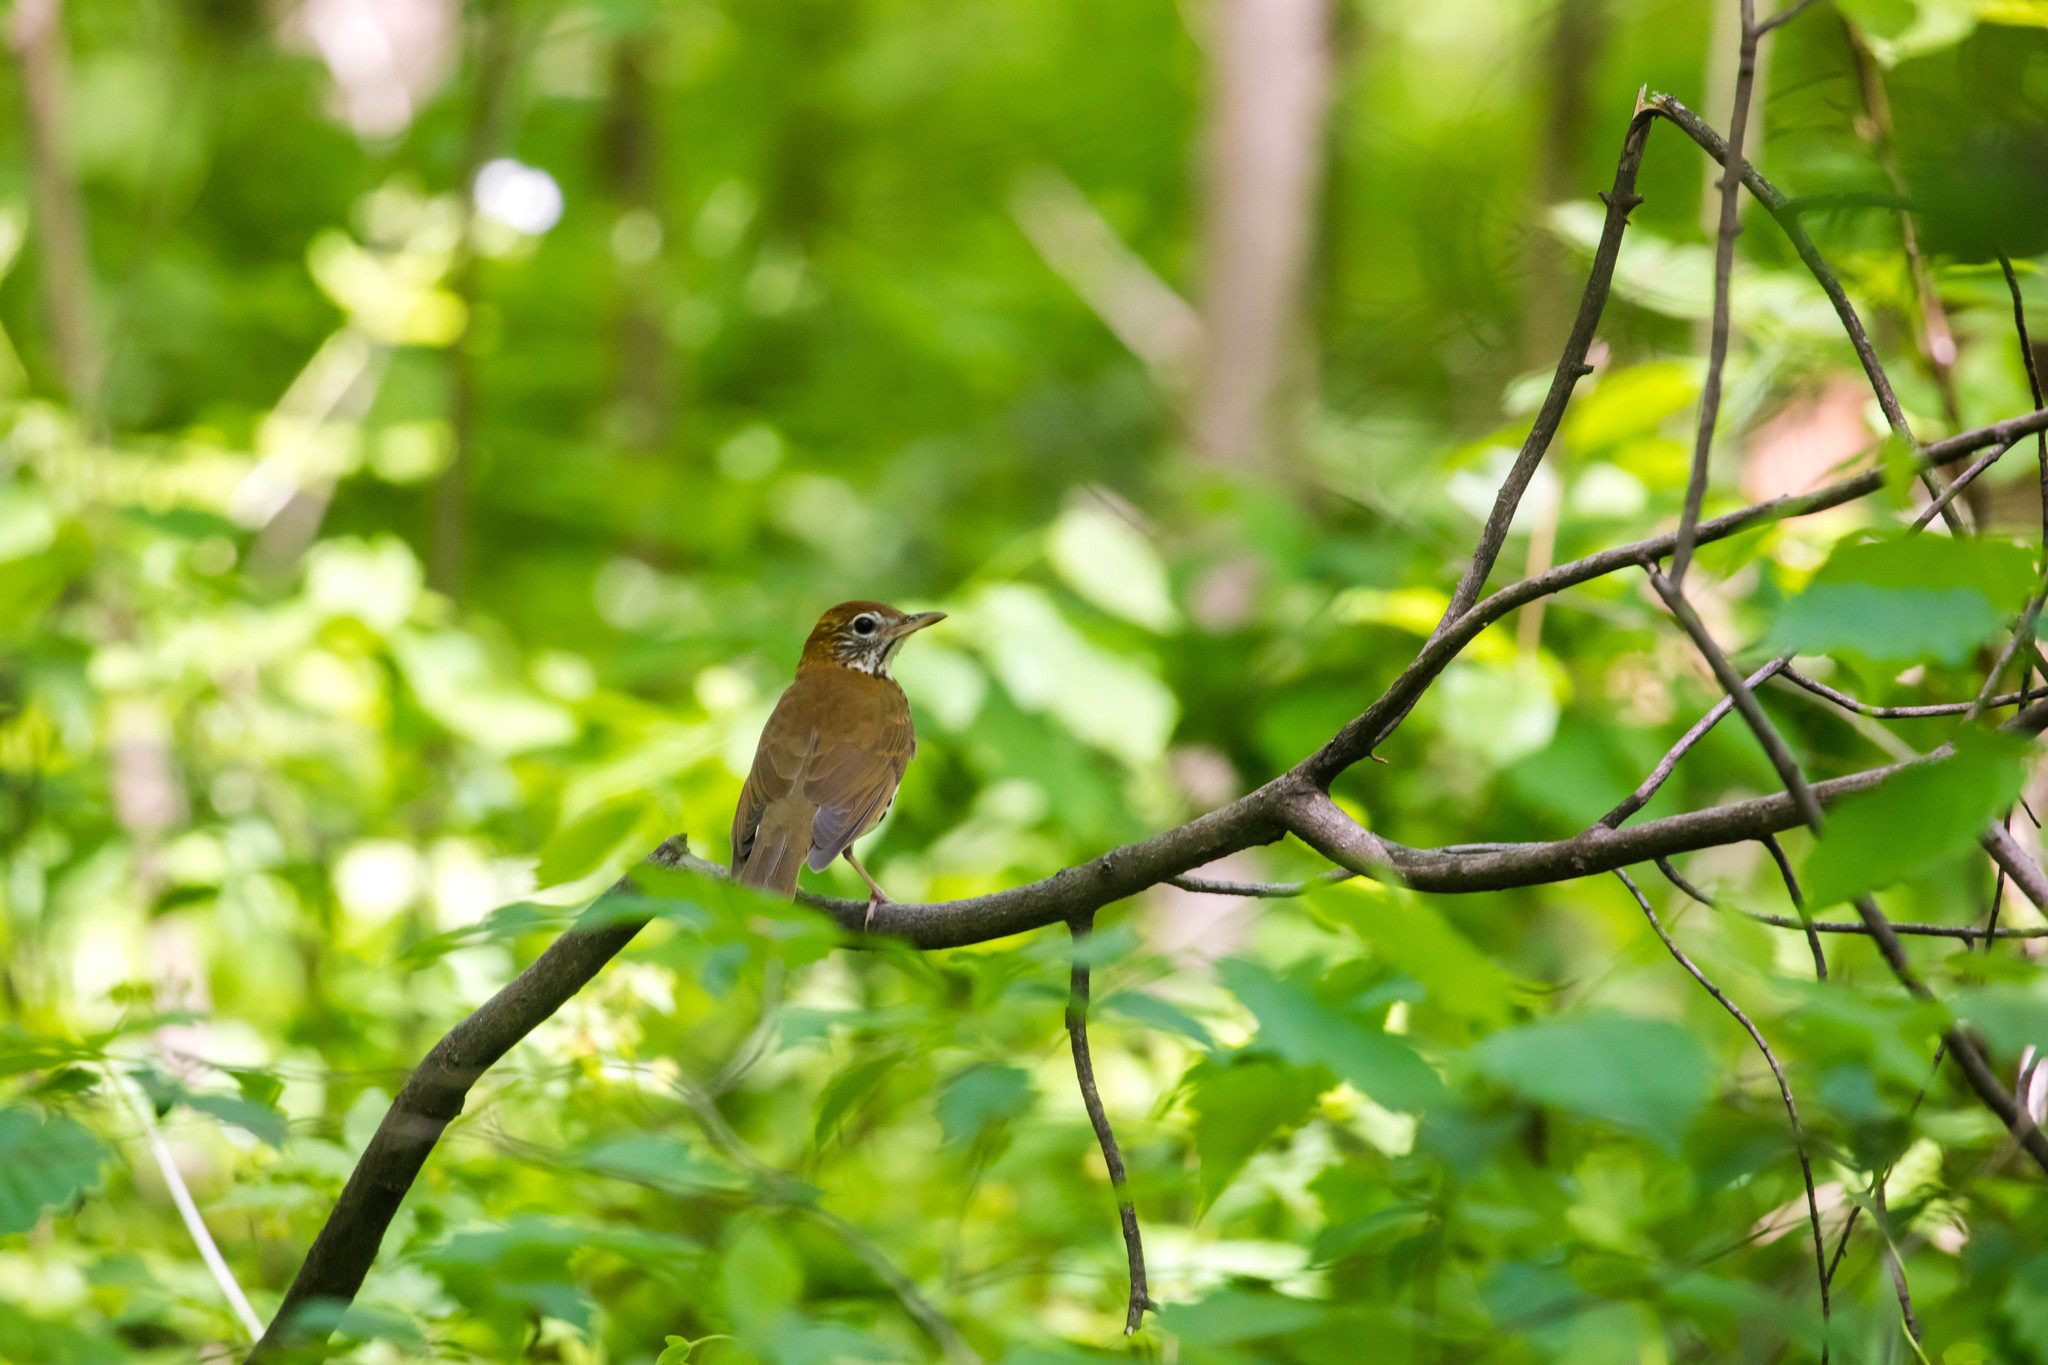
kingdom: Animalia
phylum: Chordata
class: Aves
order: Passeriformes
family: Turdidae
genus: Hylocichla
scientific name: Hylocichla mustelina
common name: Wood thrush
